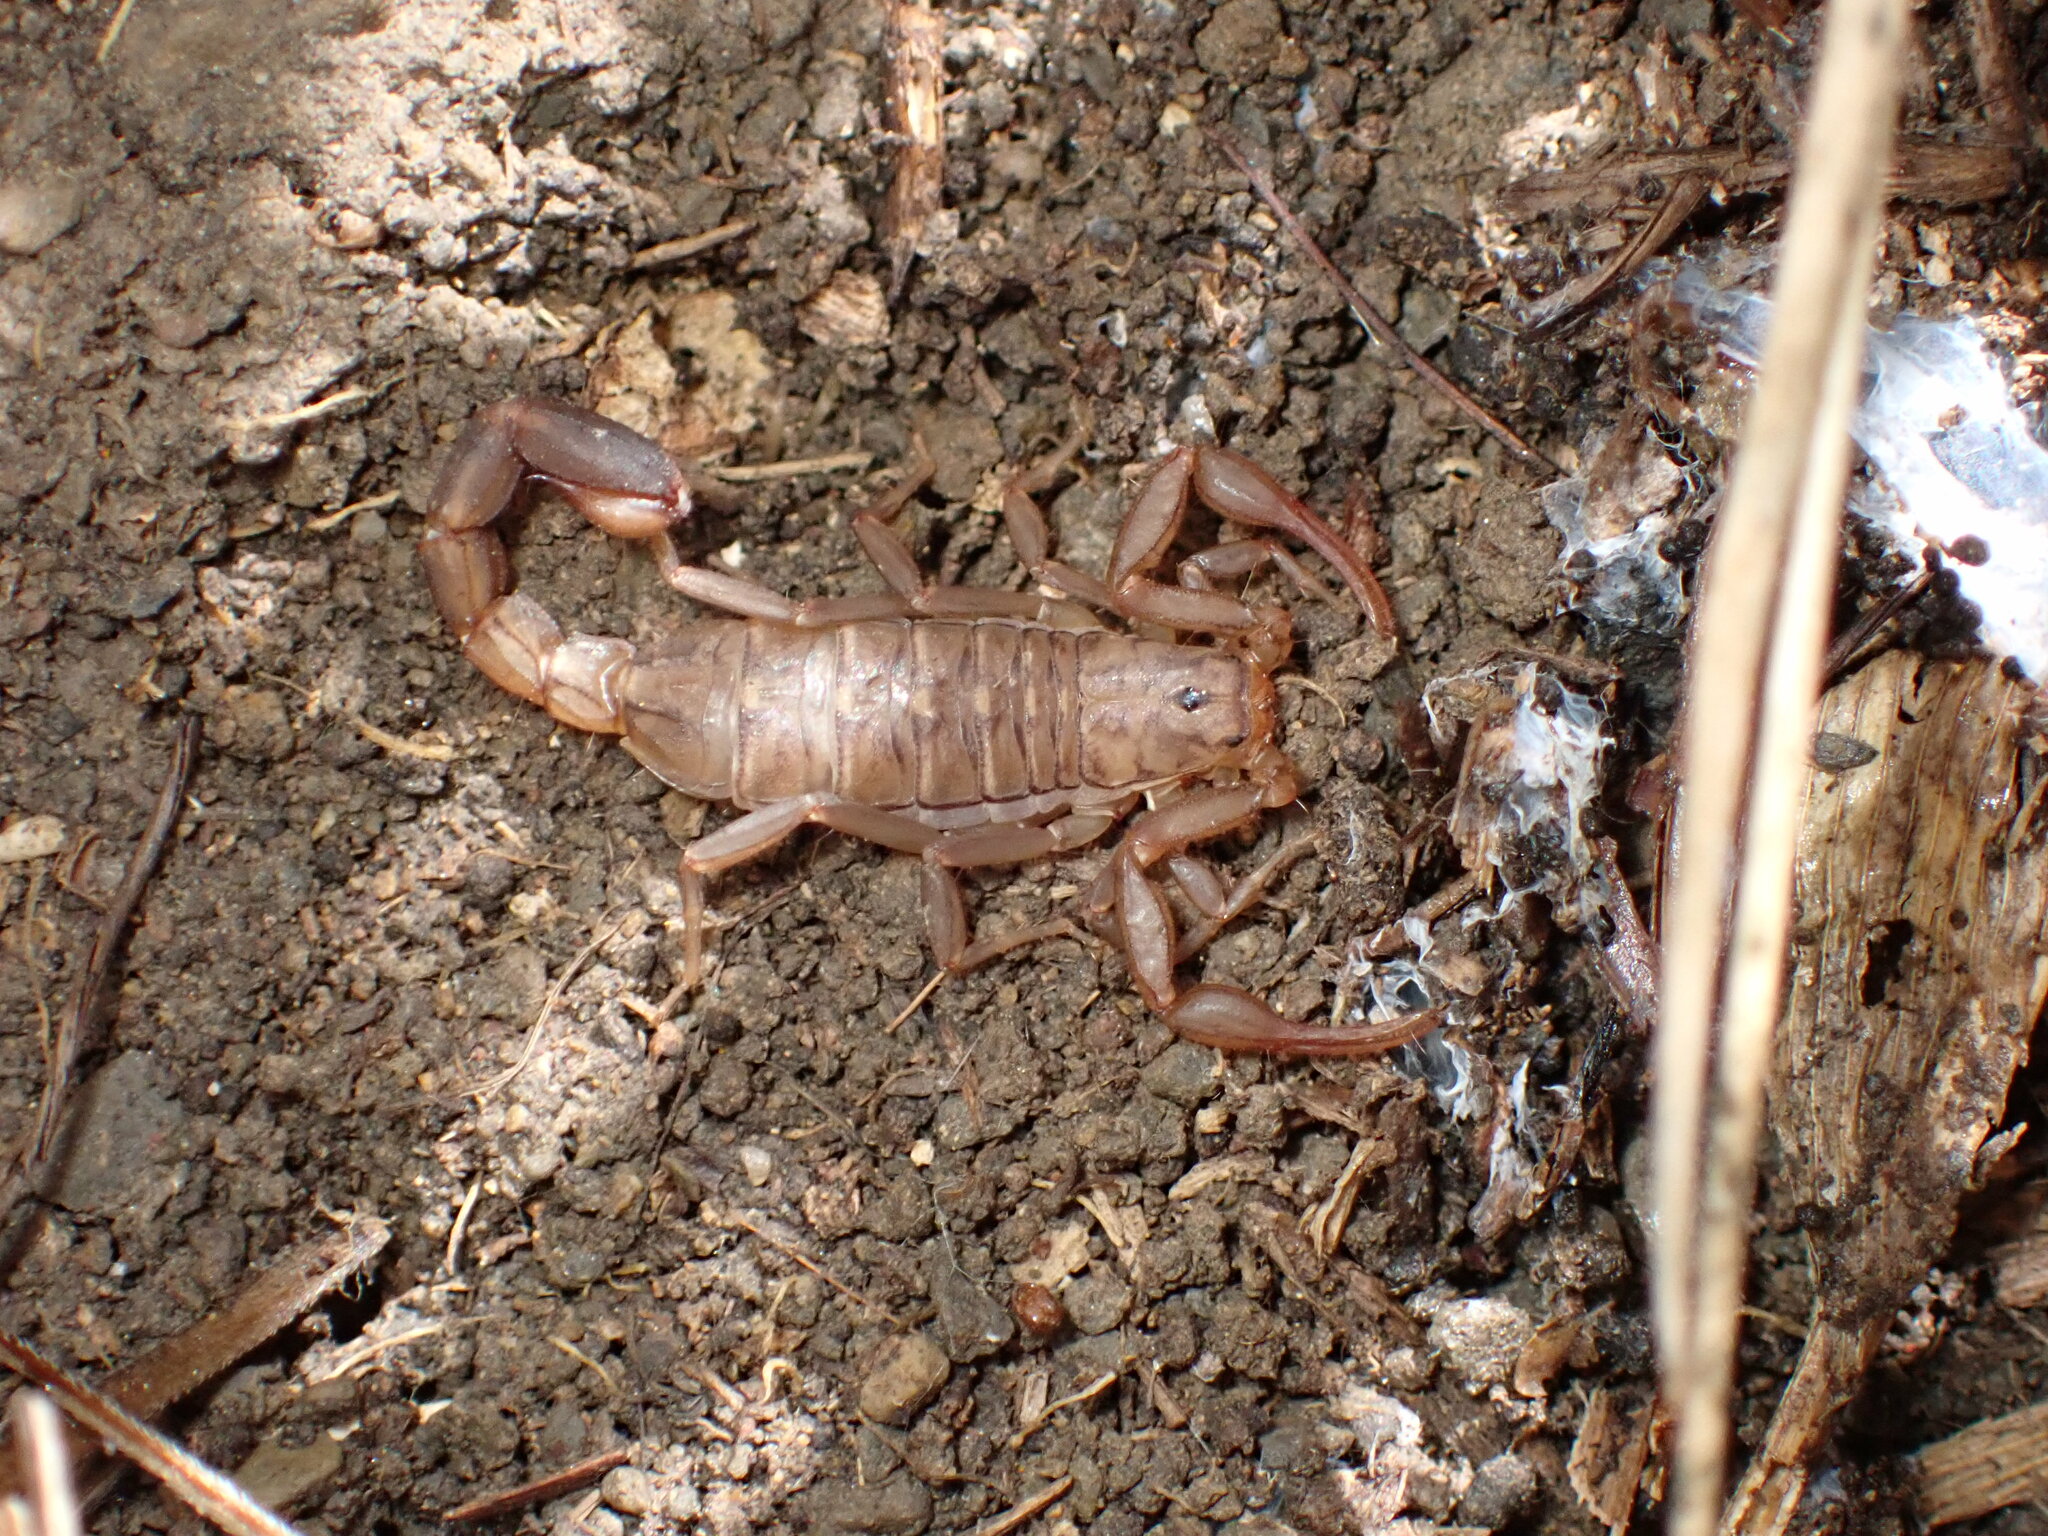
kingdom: Animalia
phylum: Arthropoda
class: Arachnida
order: Scorpiones
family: Vaejovidae
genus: Serradigitus
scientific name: Serradigitus gertschi
